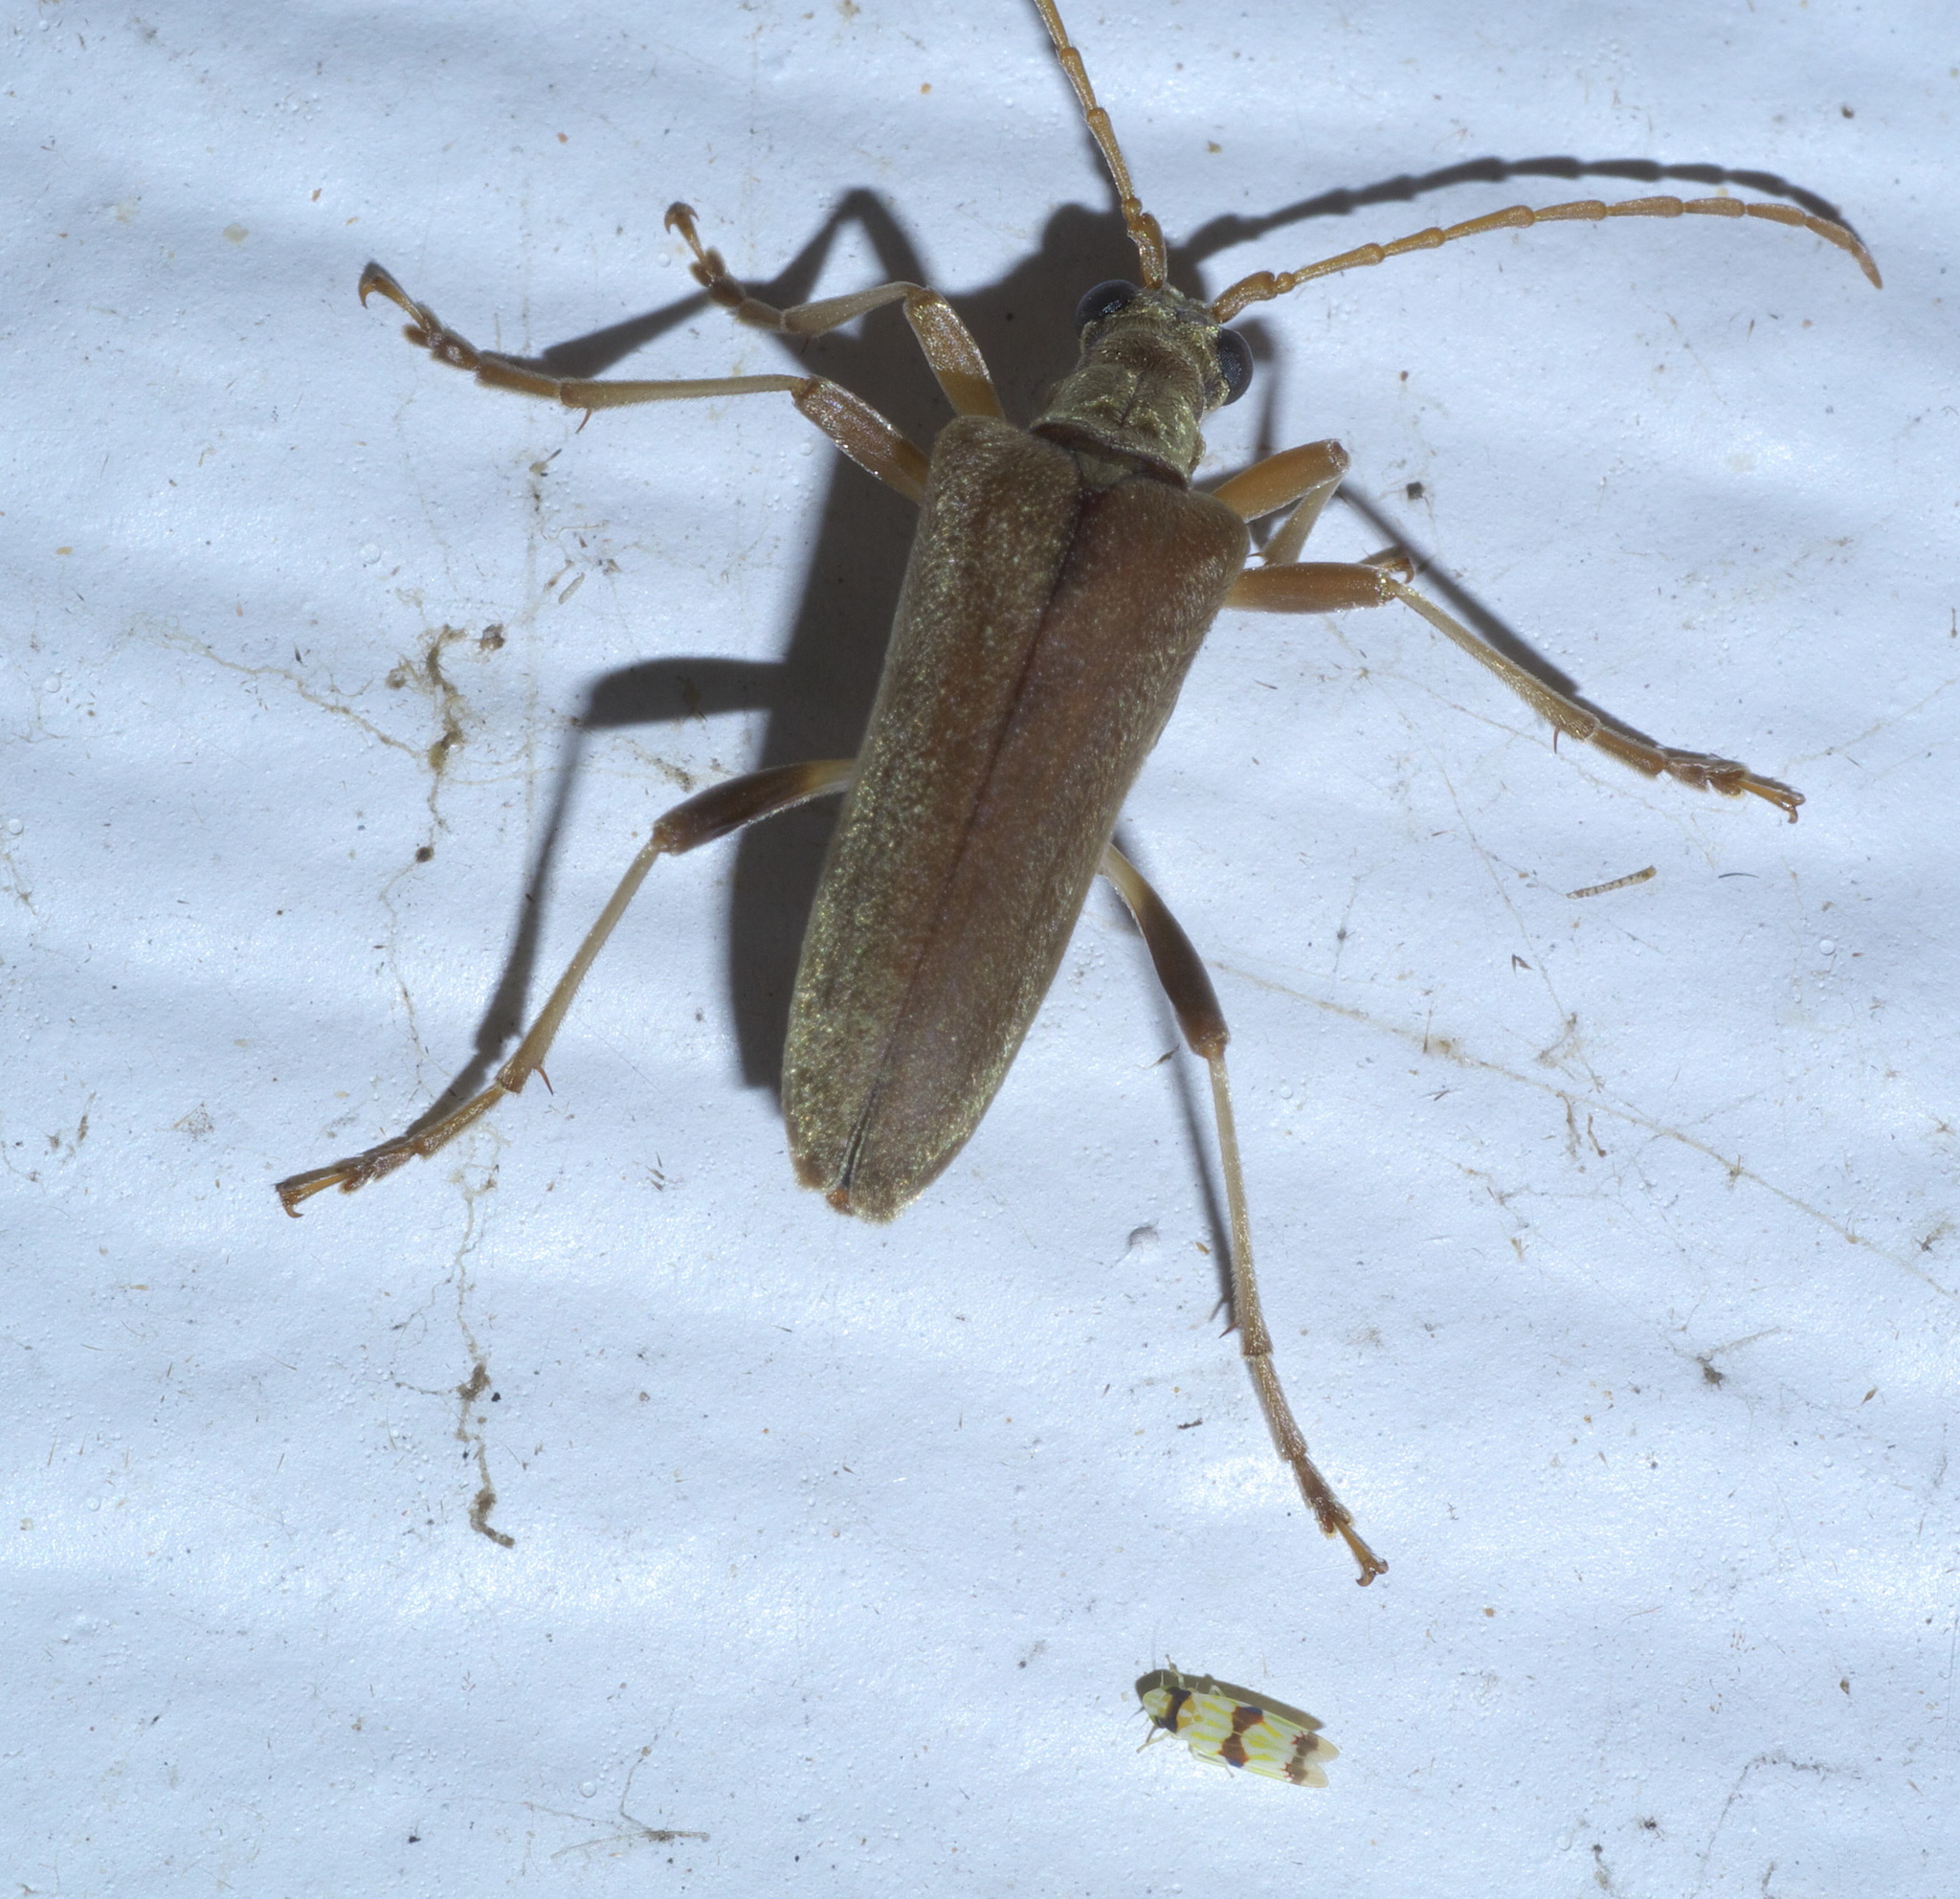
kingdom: Animalia
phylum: Arthropoda
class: Insecta
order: Coleoptera
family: Cerambycidae
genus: Stenocorus
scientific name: Stenocorus cinnamopterus
